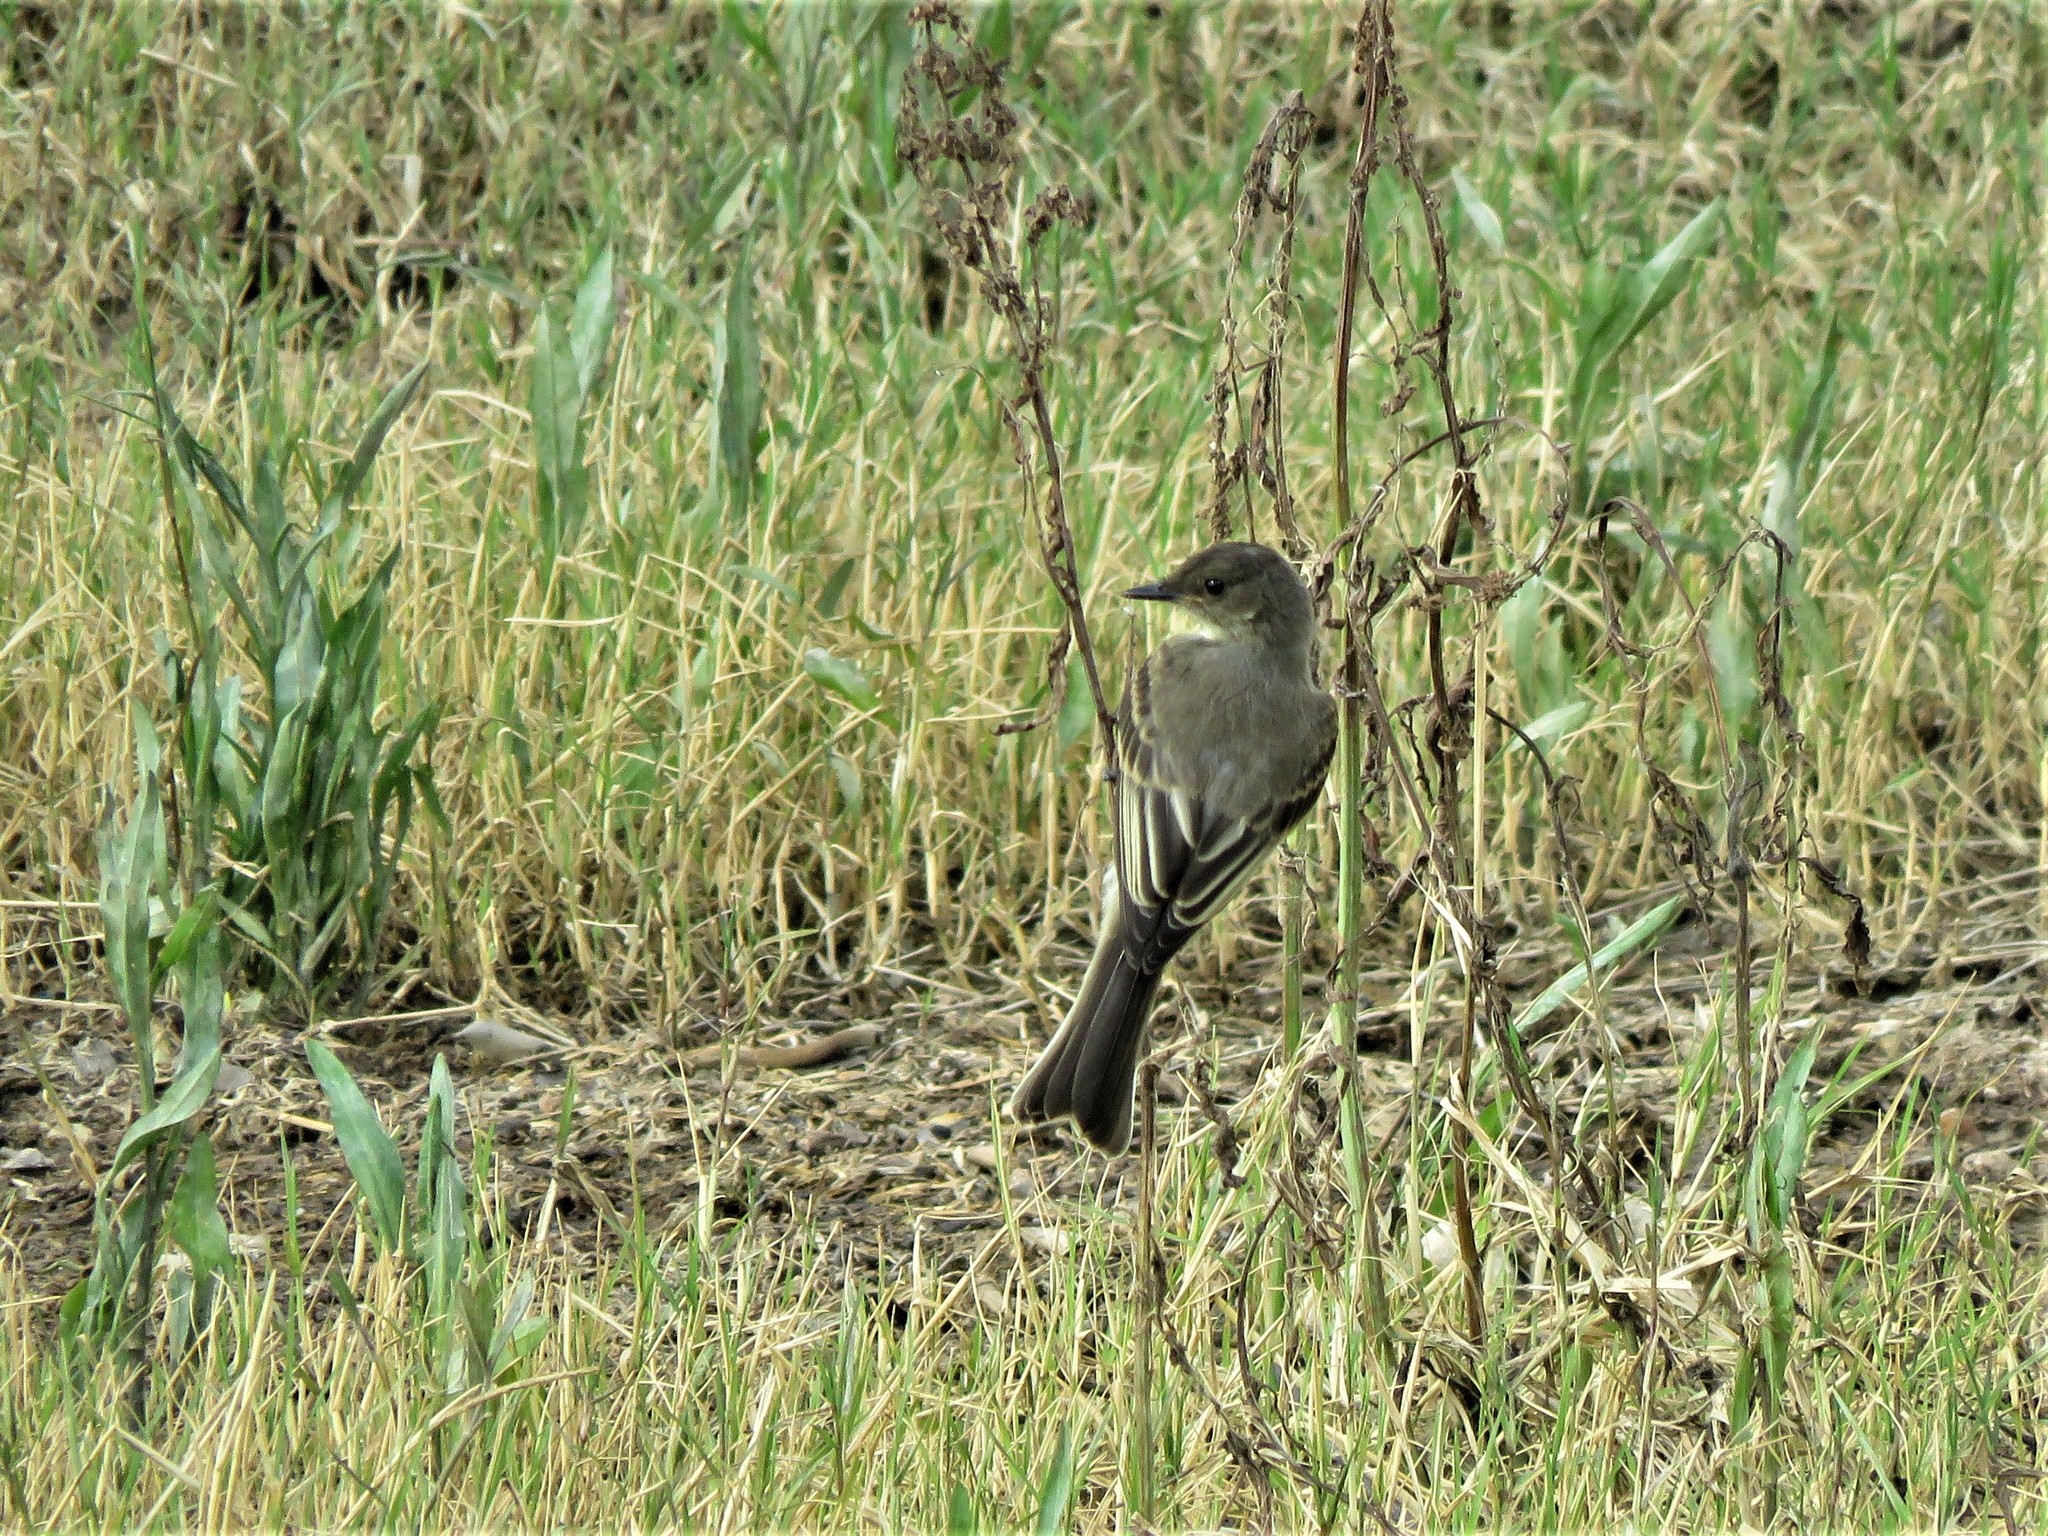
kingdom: Animalia
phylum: Chordata
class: Aves
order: Passeriformes
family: Tyrannidae
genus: Sayornis
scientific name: Sayornis phoebe
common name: Eastern phoebe
